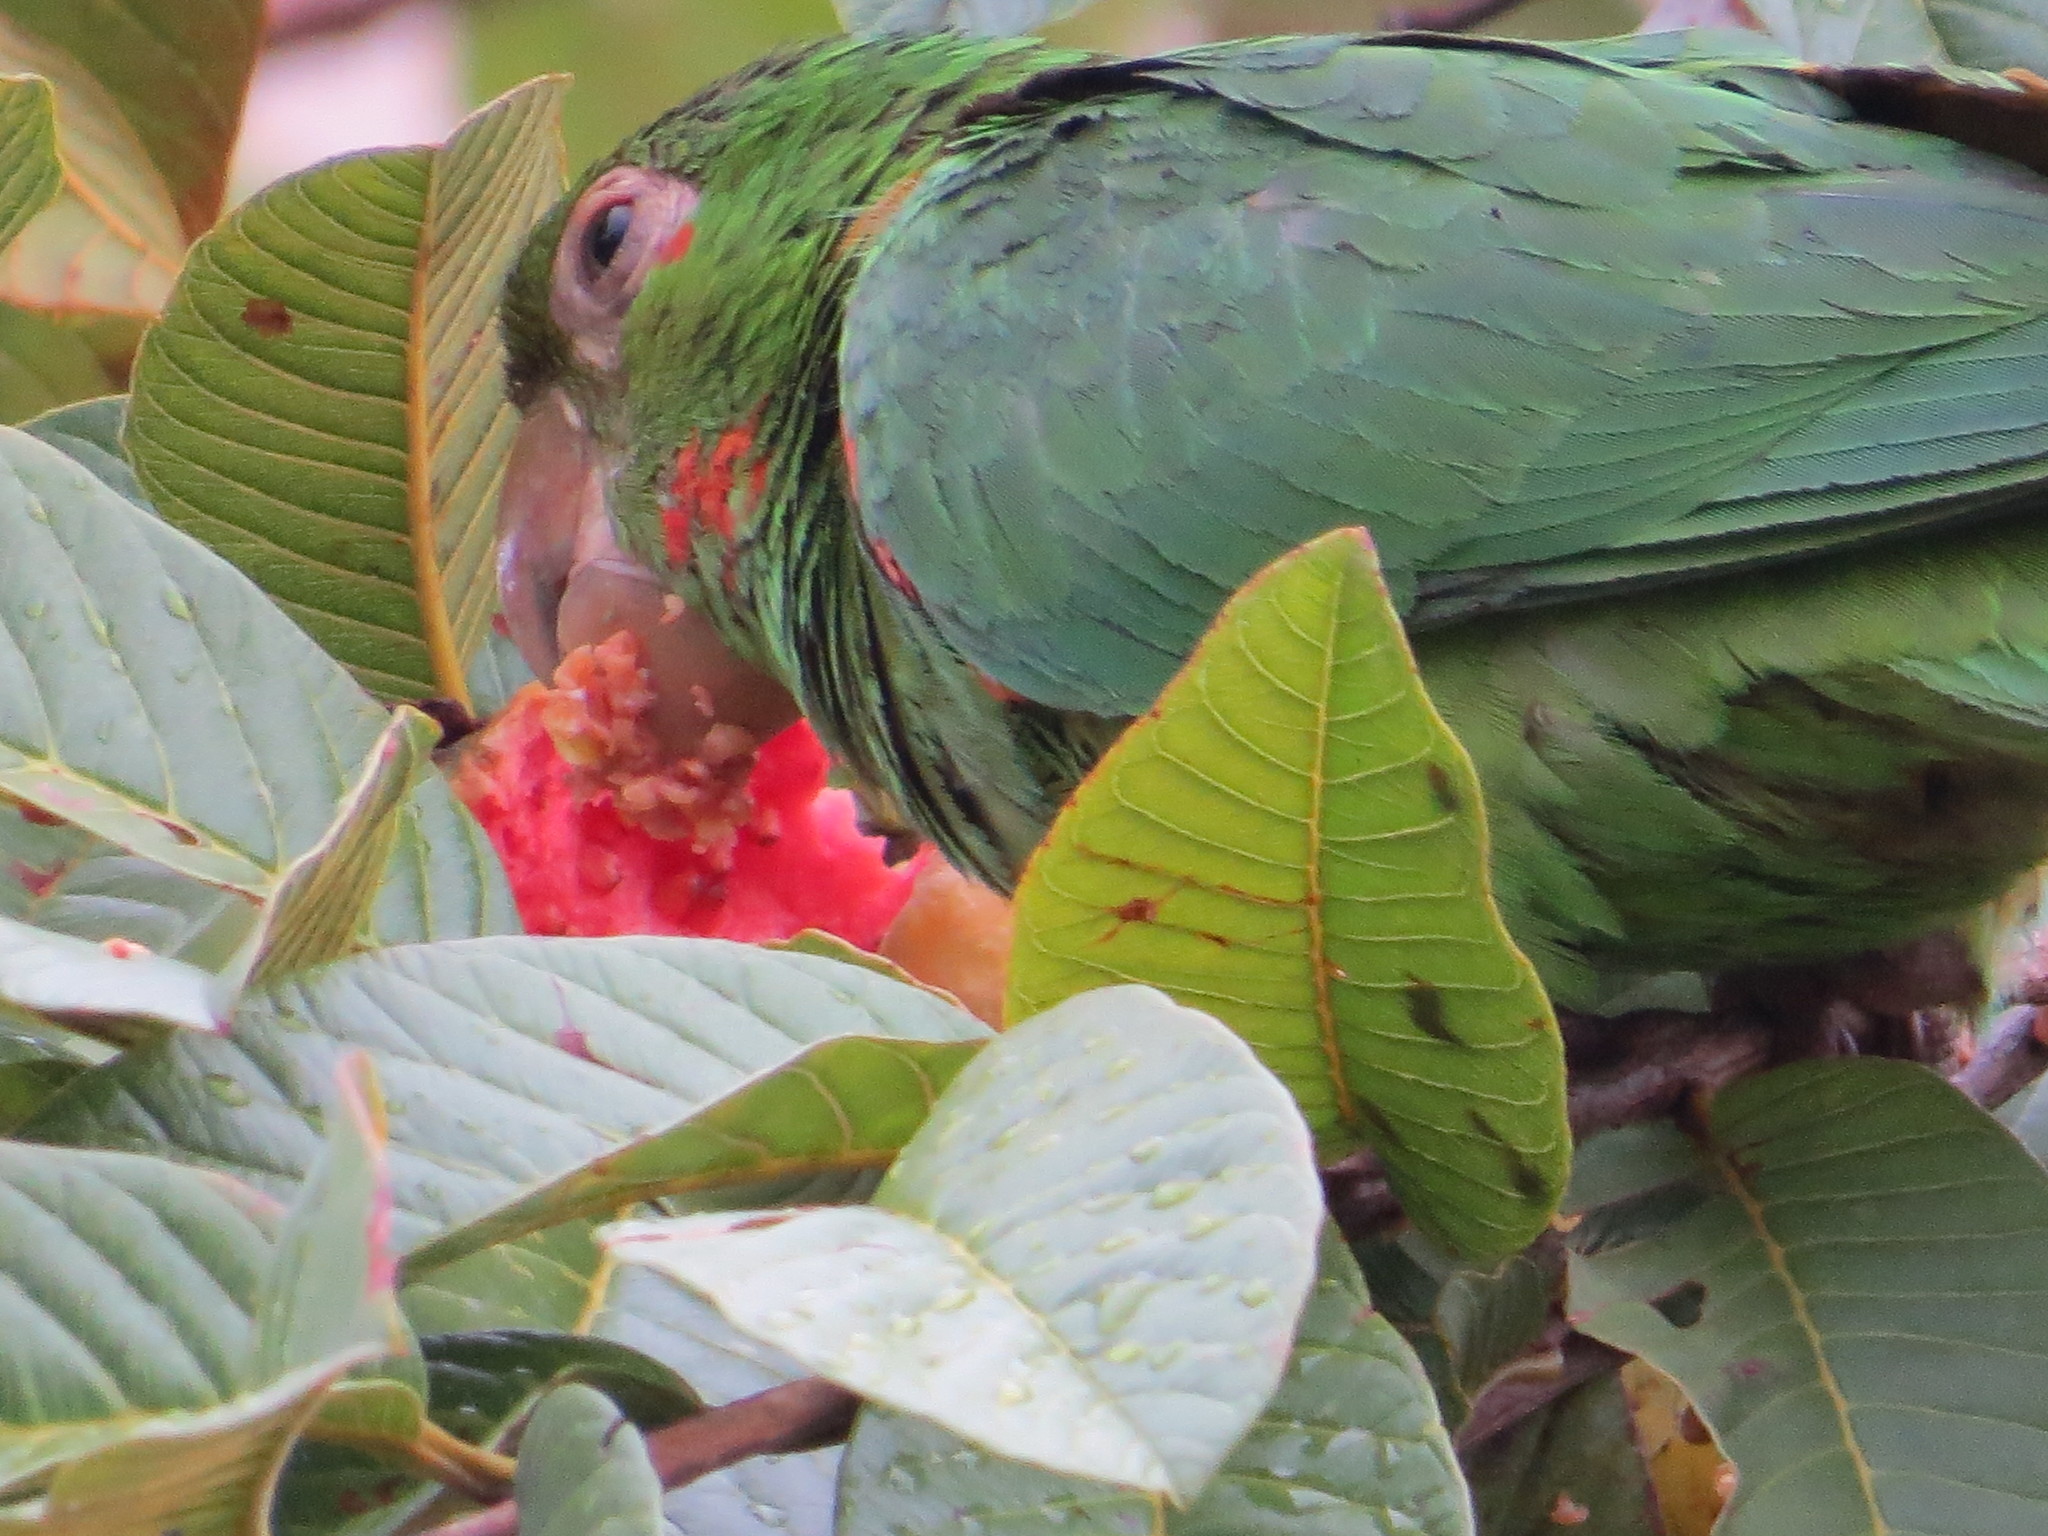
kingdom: Animalia
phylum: Chordata
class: Aves
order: Psittaciformes
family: Psittacidae
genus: Aratinga
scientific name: Aratinga leucophthalma
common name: White-eyed parakeet
